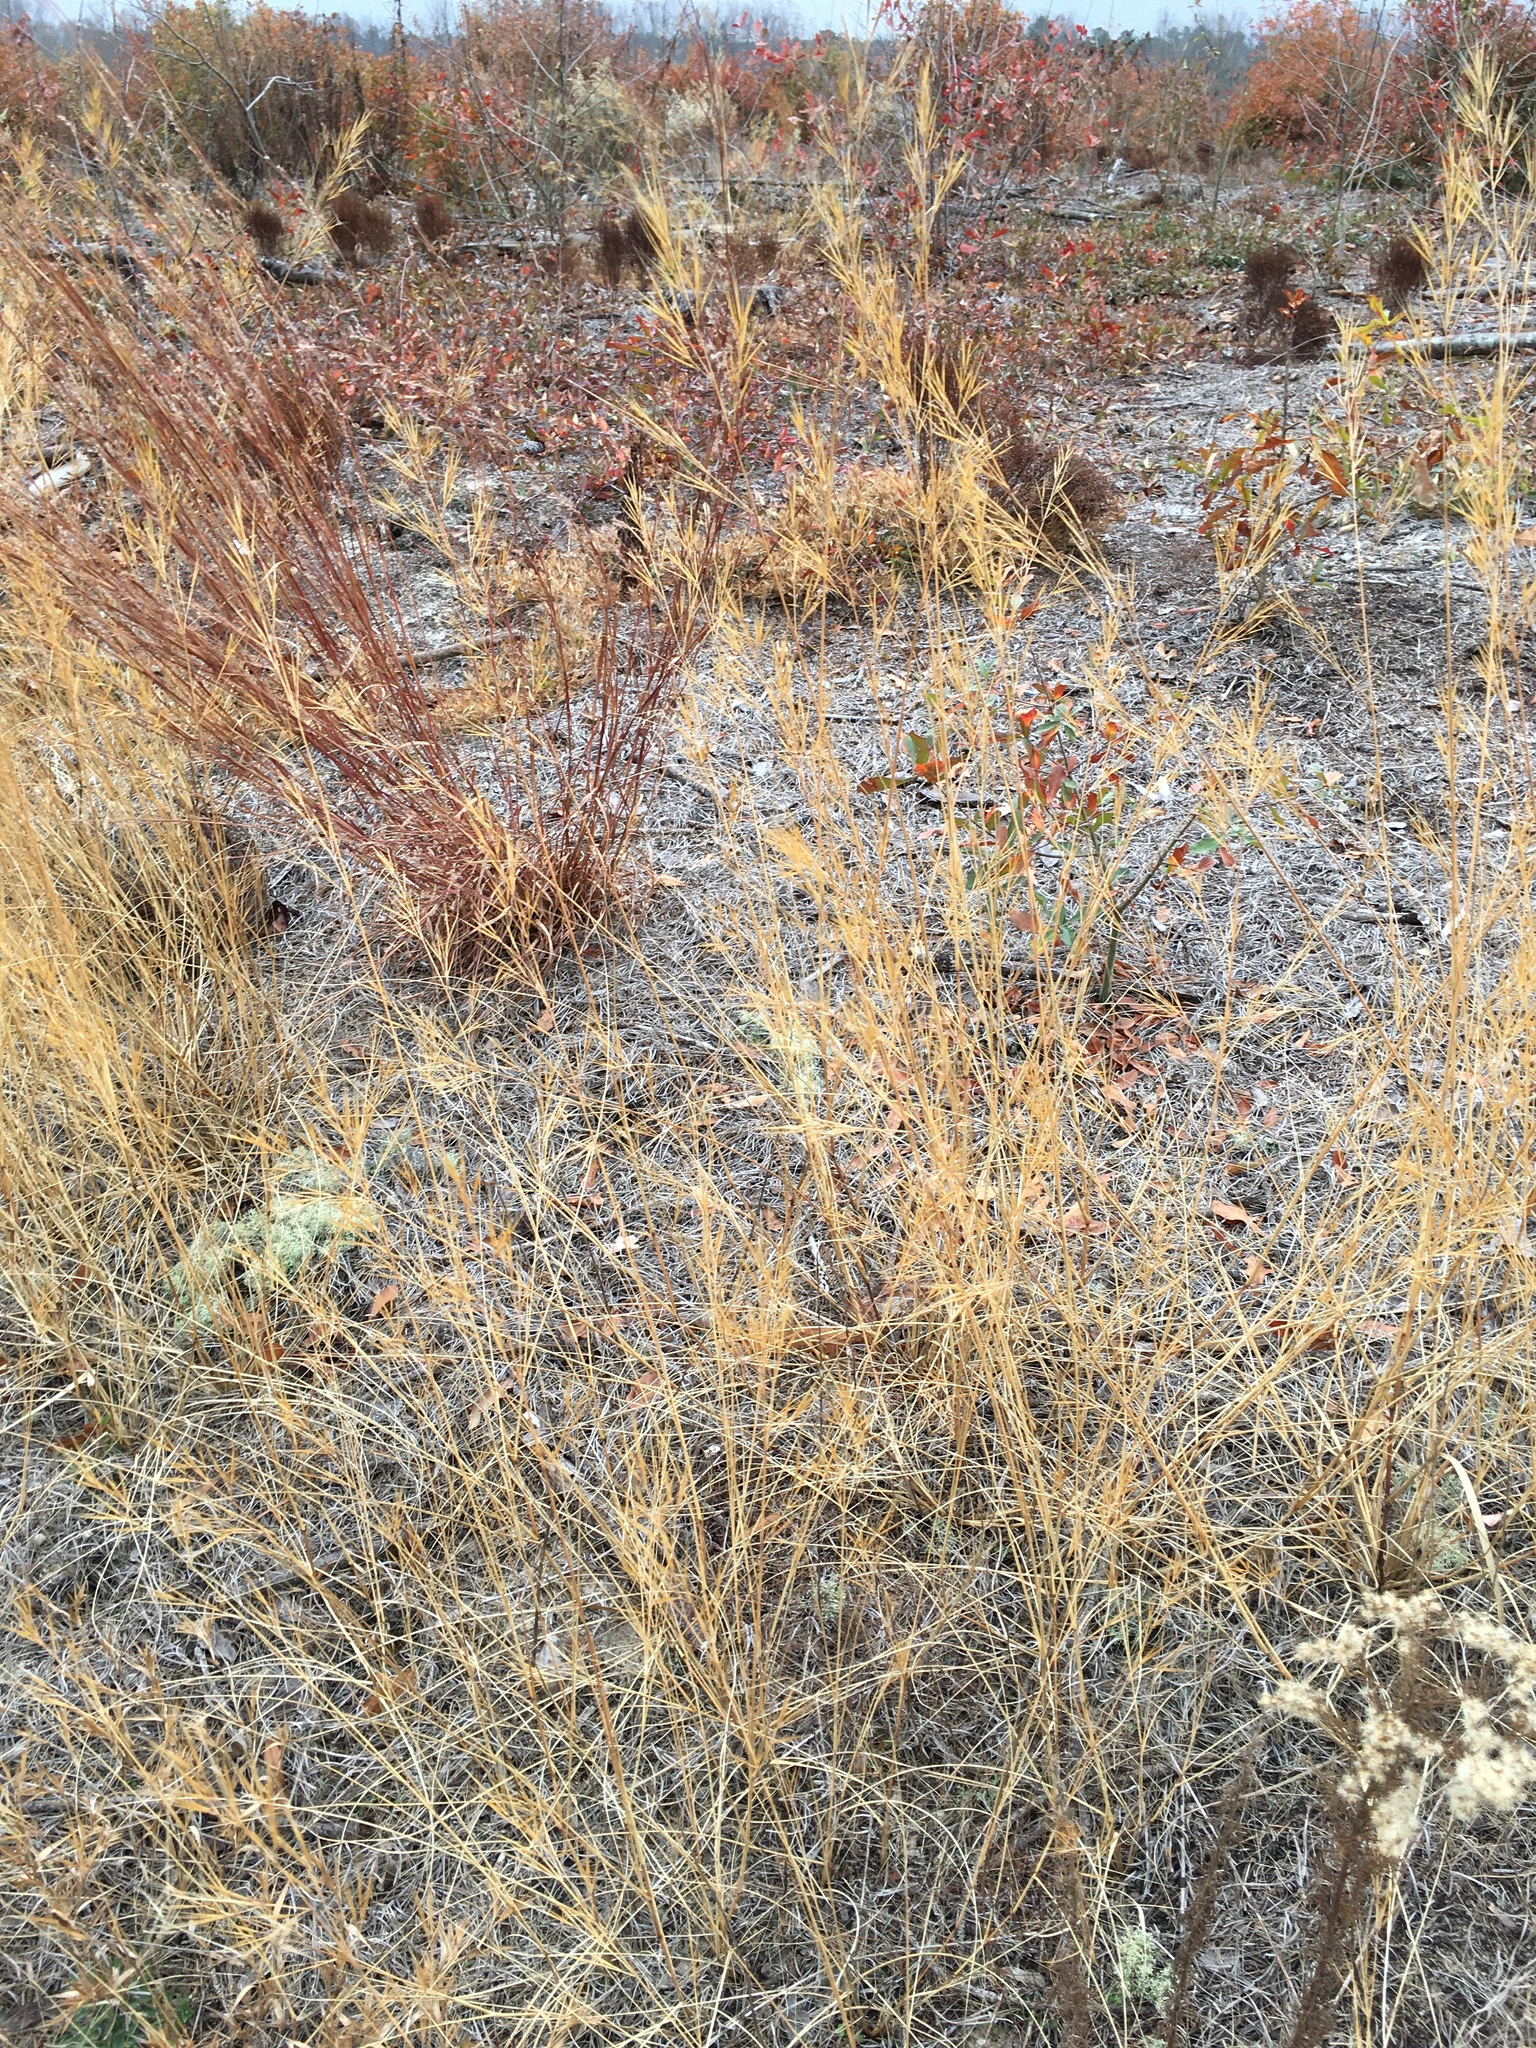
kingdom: Plantae
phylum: Tracheophyta
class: Liliopsida
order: Poales
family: Poaceae
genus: Aristida
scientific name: Aristida tuberculosa
